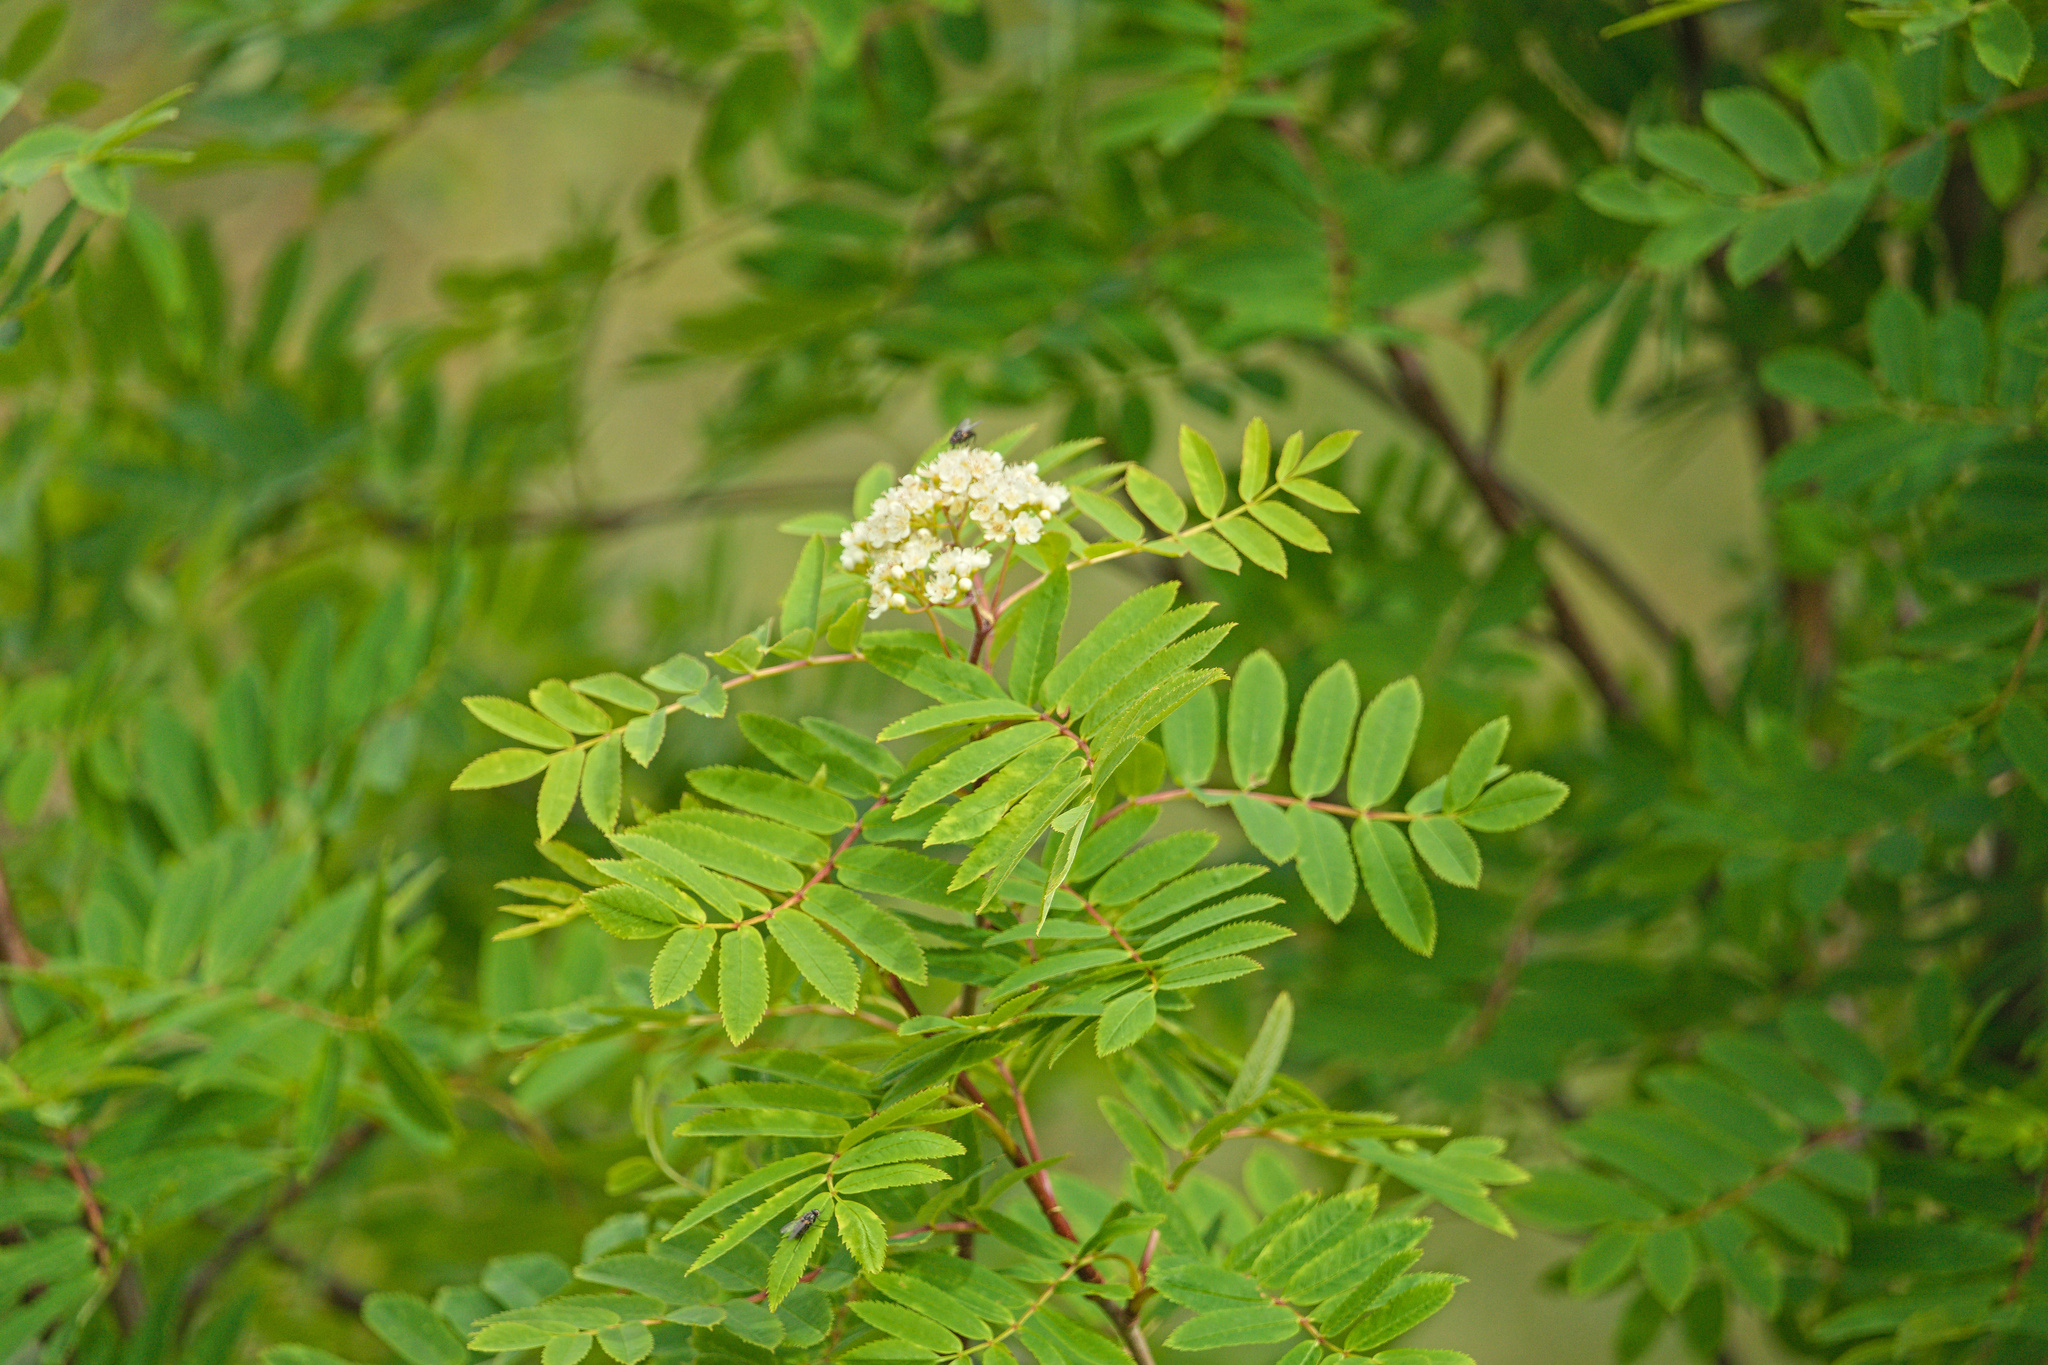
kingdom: Plantae
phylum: Tracheophyta
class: Magnoliopsida
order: Rosales
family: Rosaceae
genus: Sorbus
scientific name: Sorbus aucuparia
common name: Rowan
